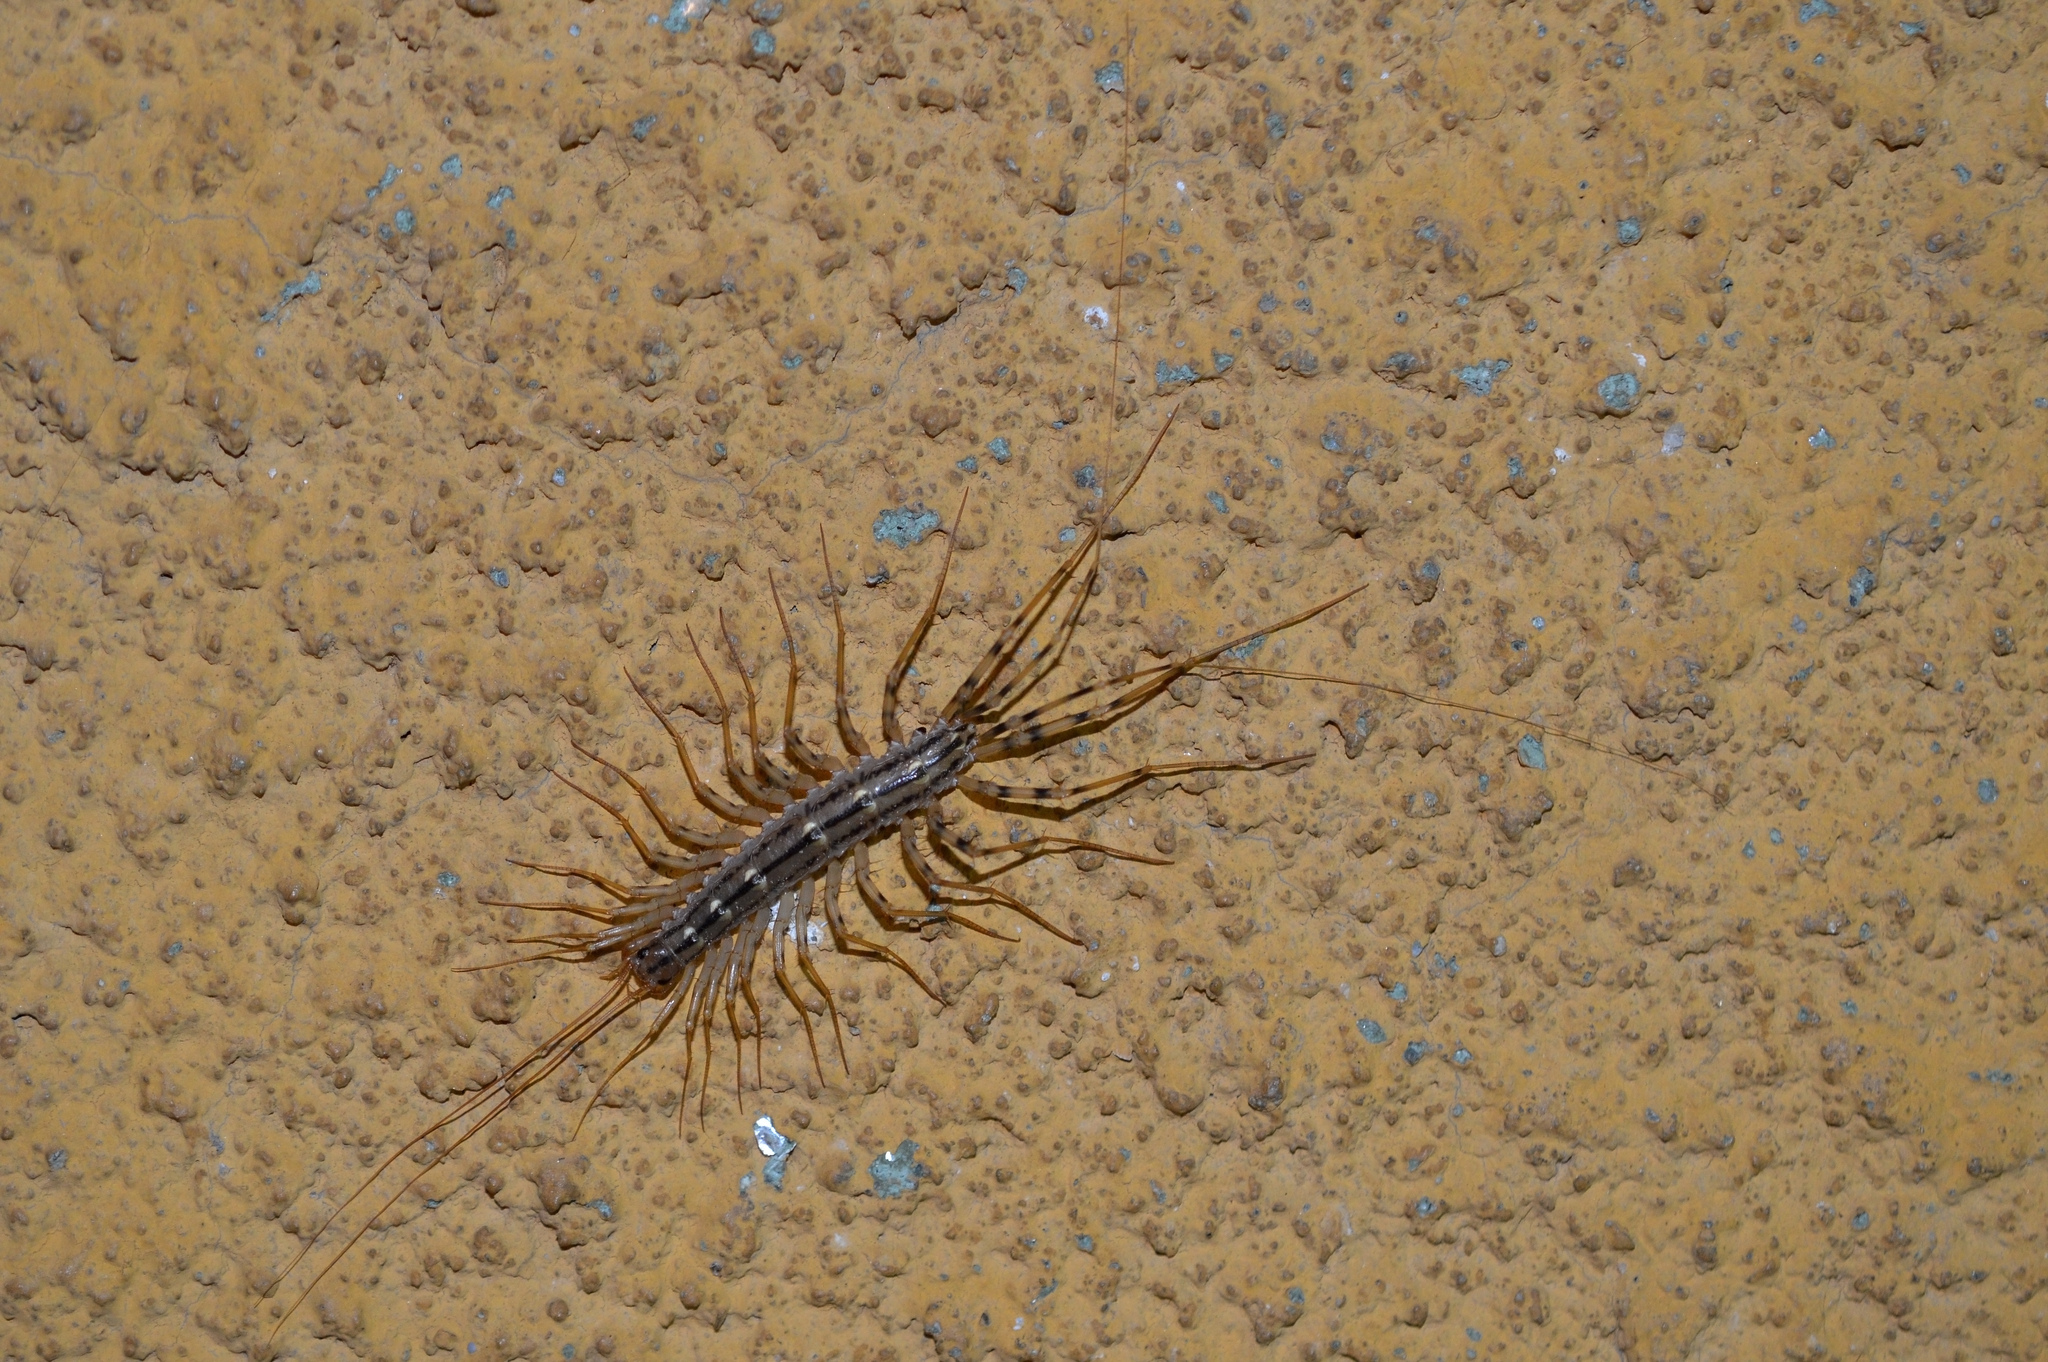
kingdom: Animalia
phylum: Arthropoda
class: Chilopoda
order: Scutigeromorpha
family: Scutigeridae
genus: Scutigera
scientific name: Scutigera coleoptrata
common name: House centipede
